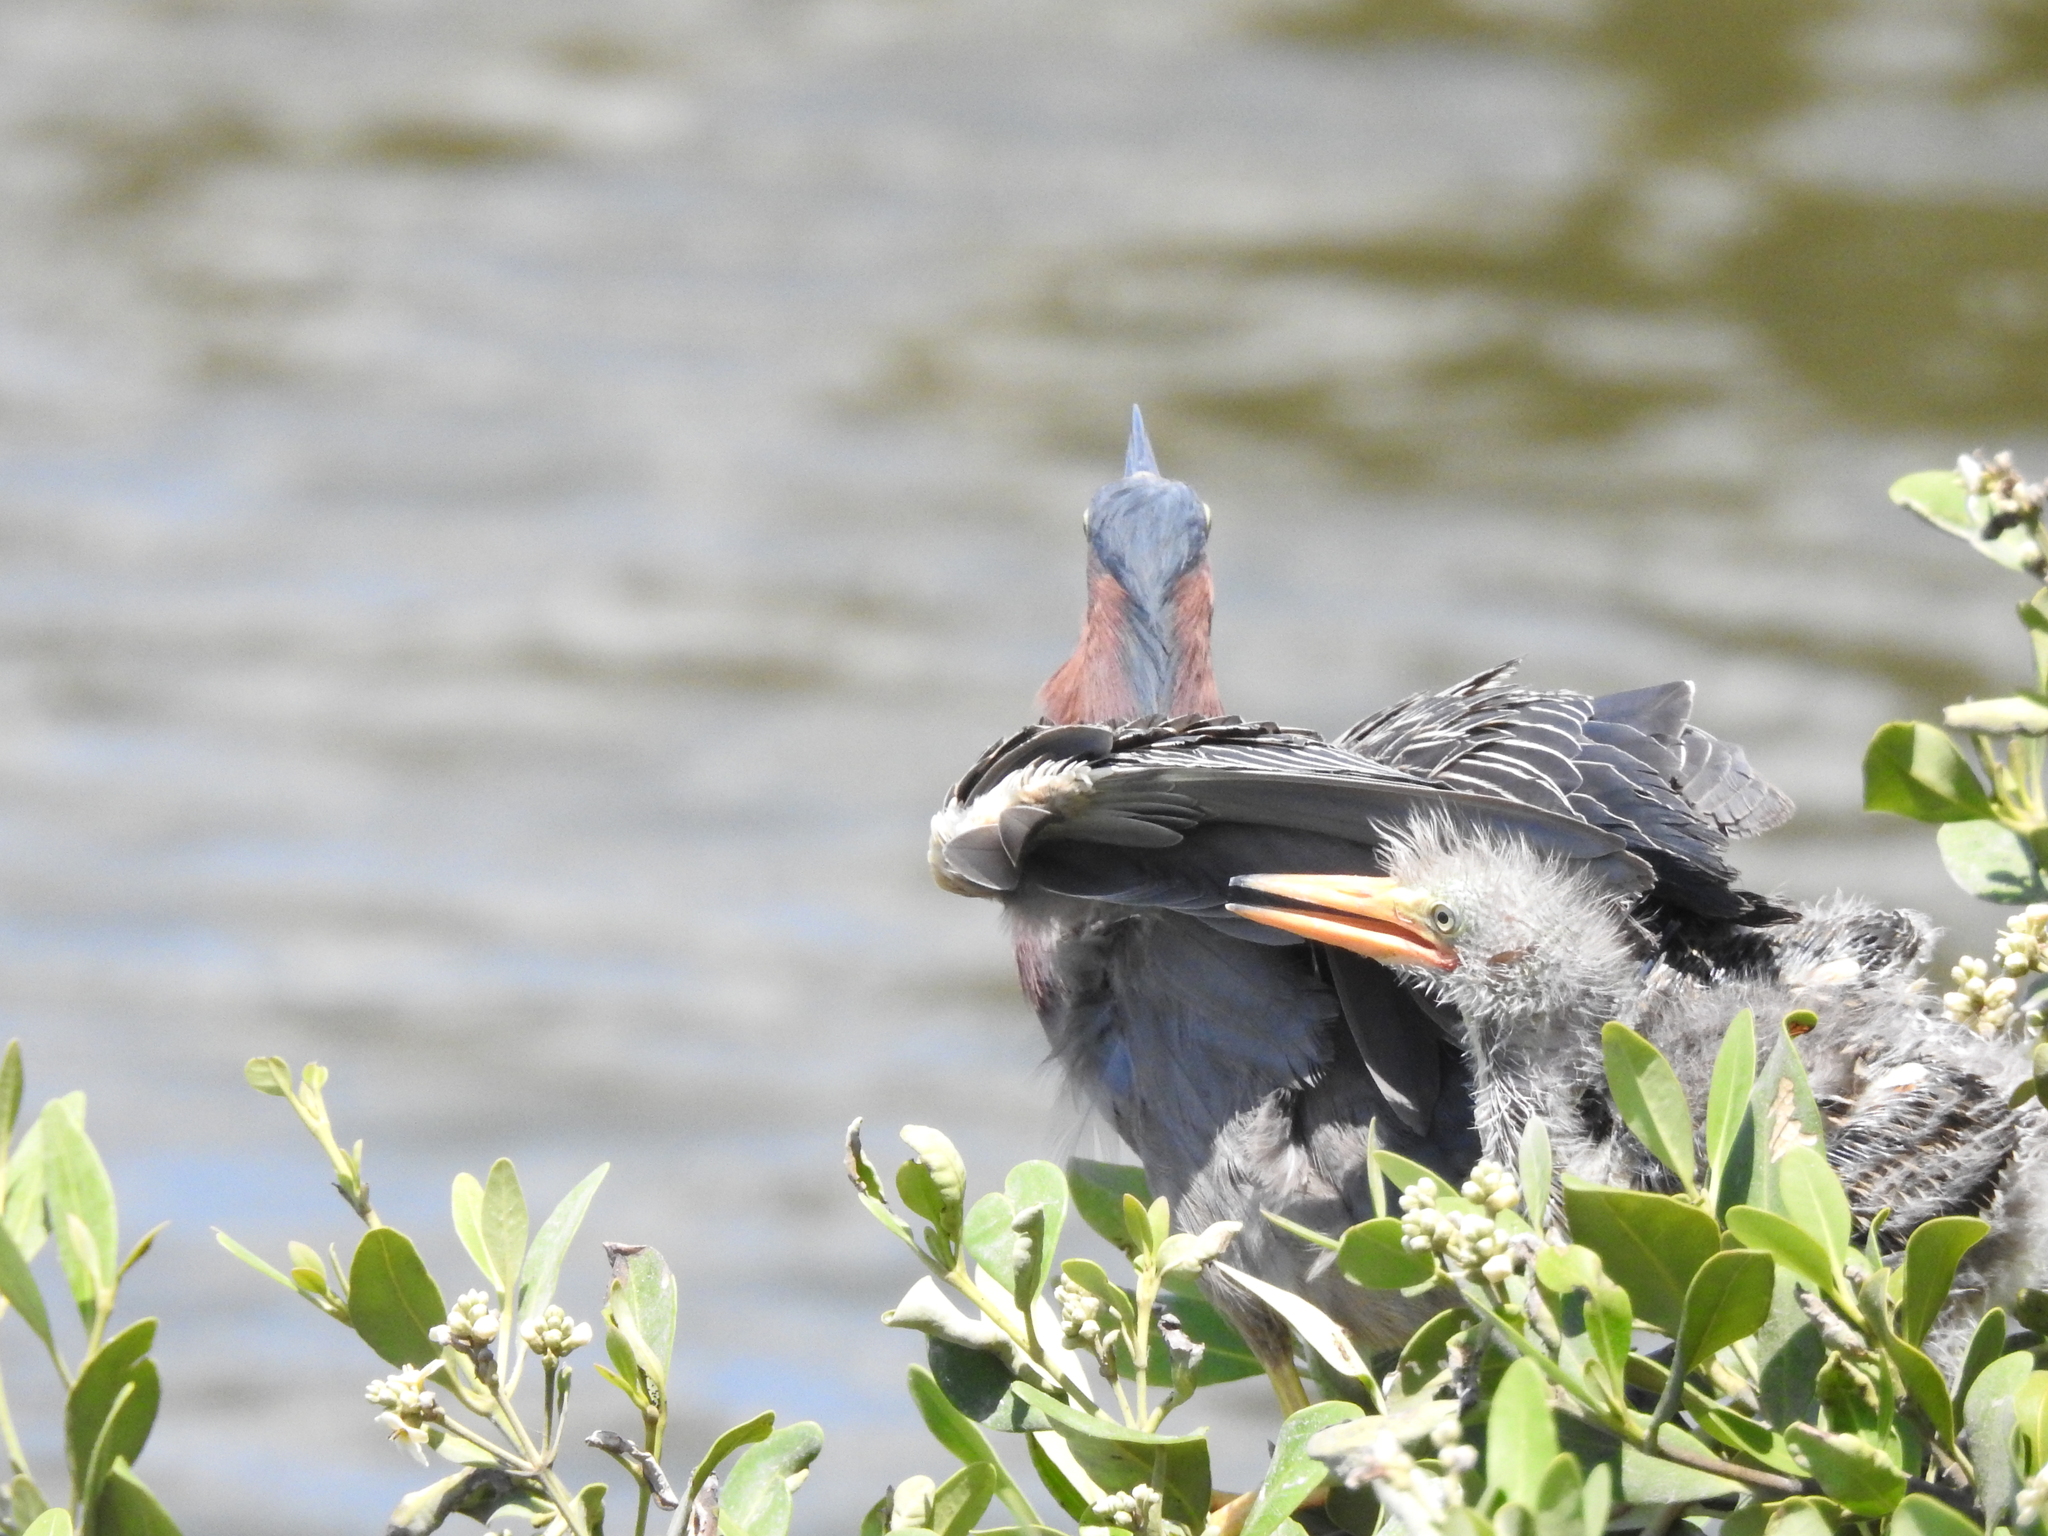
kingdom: Animalia
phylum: Chordata
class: Aves
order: Pelecaniformes
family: Ardeidae
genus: Butorides
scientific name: Butorides virescens
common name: Green heron
